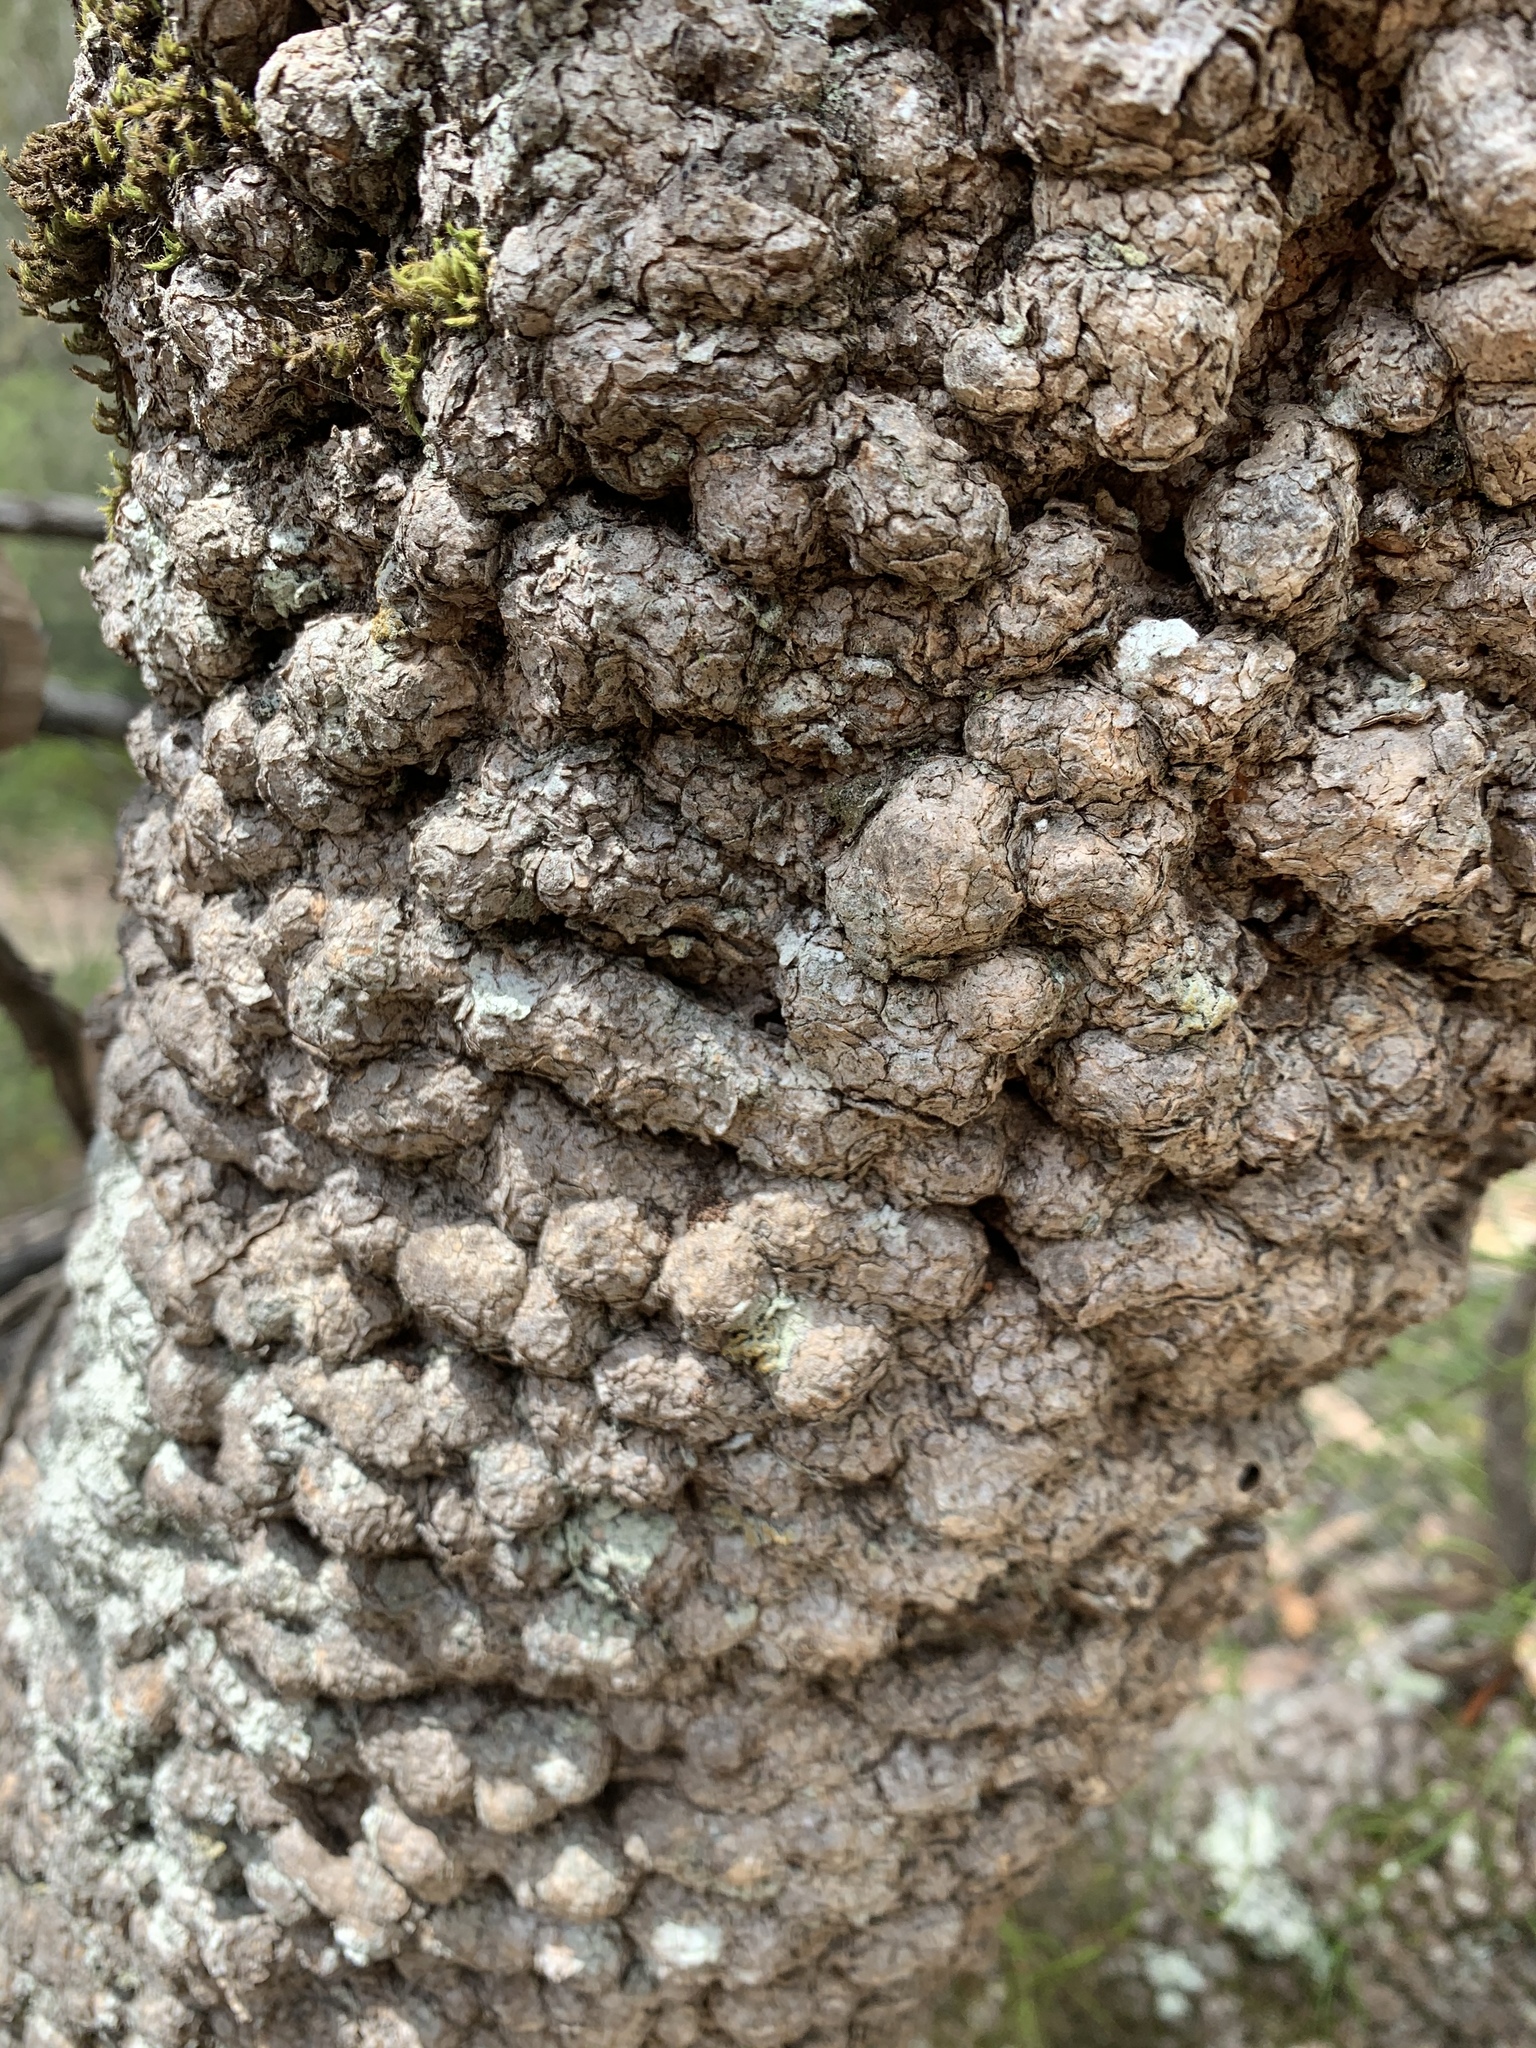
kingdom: Plantae
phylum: Tracheophyta
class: Magnoliopsida
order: Proteales
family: Proteaceae
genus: Banksia
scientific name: Banksia serrata
